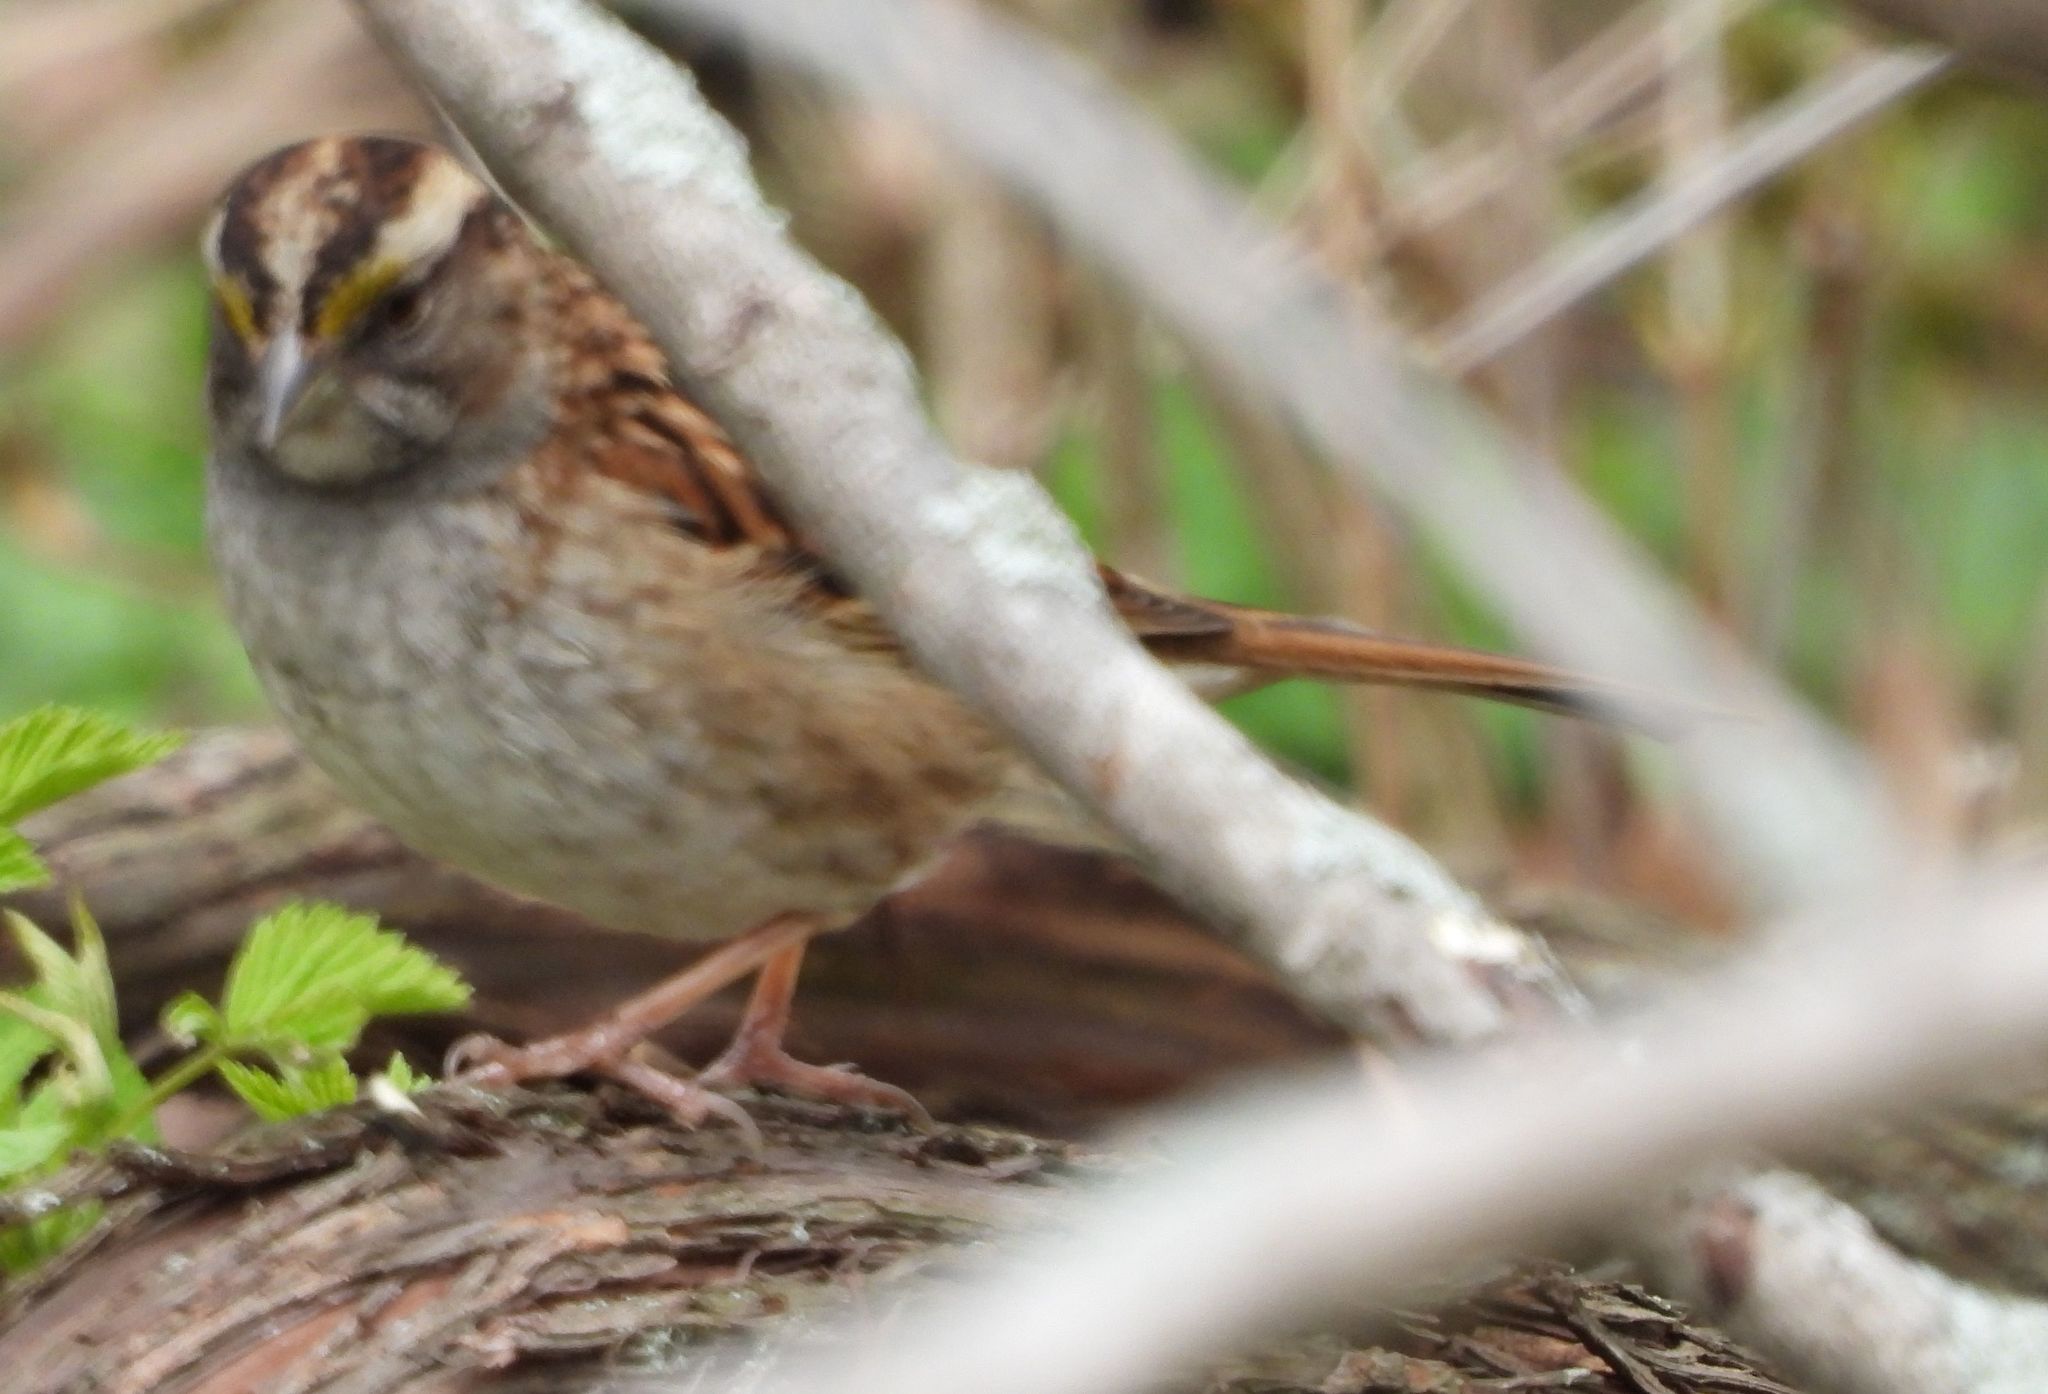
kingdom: Animalia
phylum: Chordata
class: Aves
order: Passeriformes
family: Passerellidae
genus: Zonotrichia
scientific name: Zonotrichia albicollis
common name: White-throated sparrow
